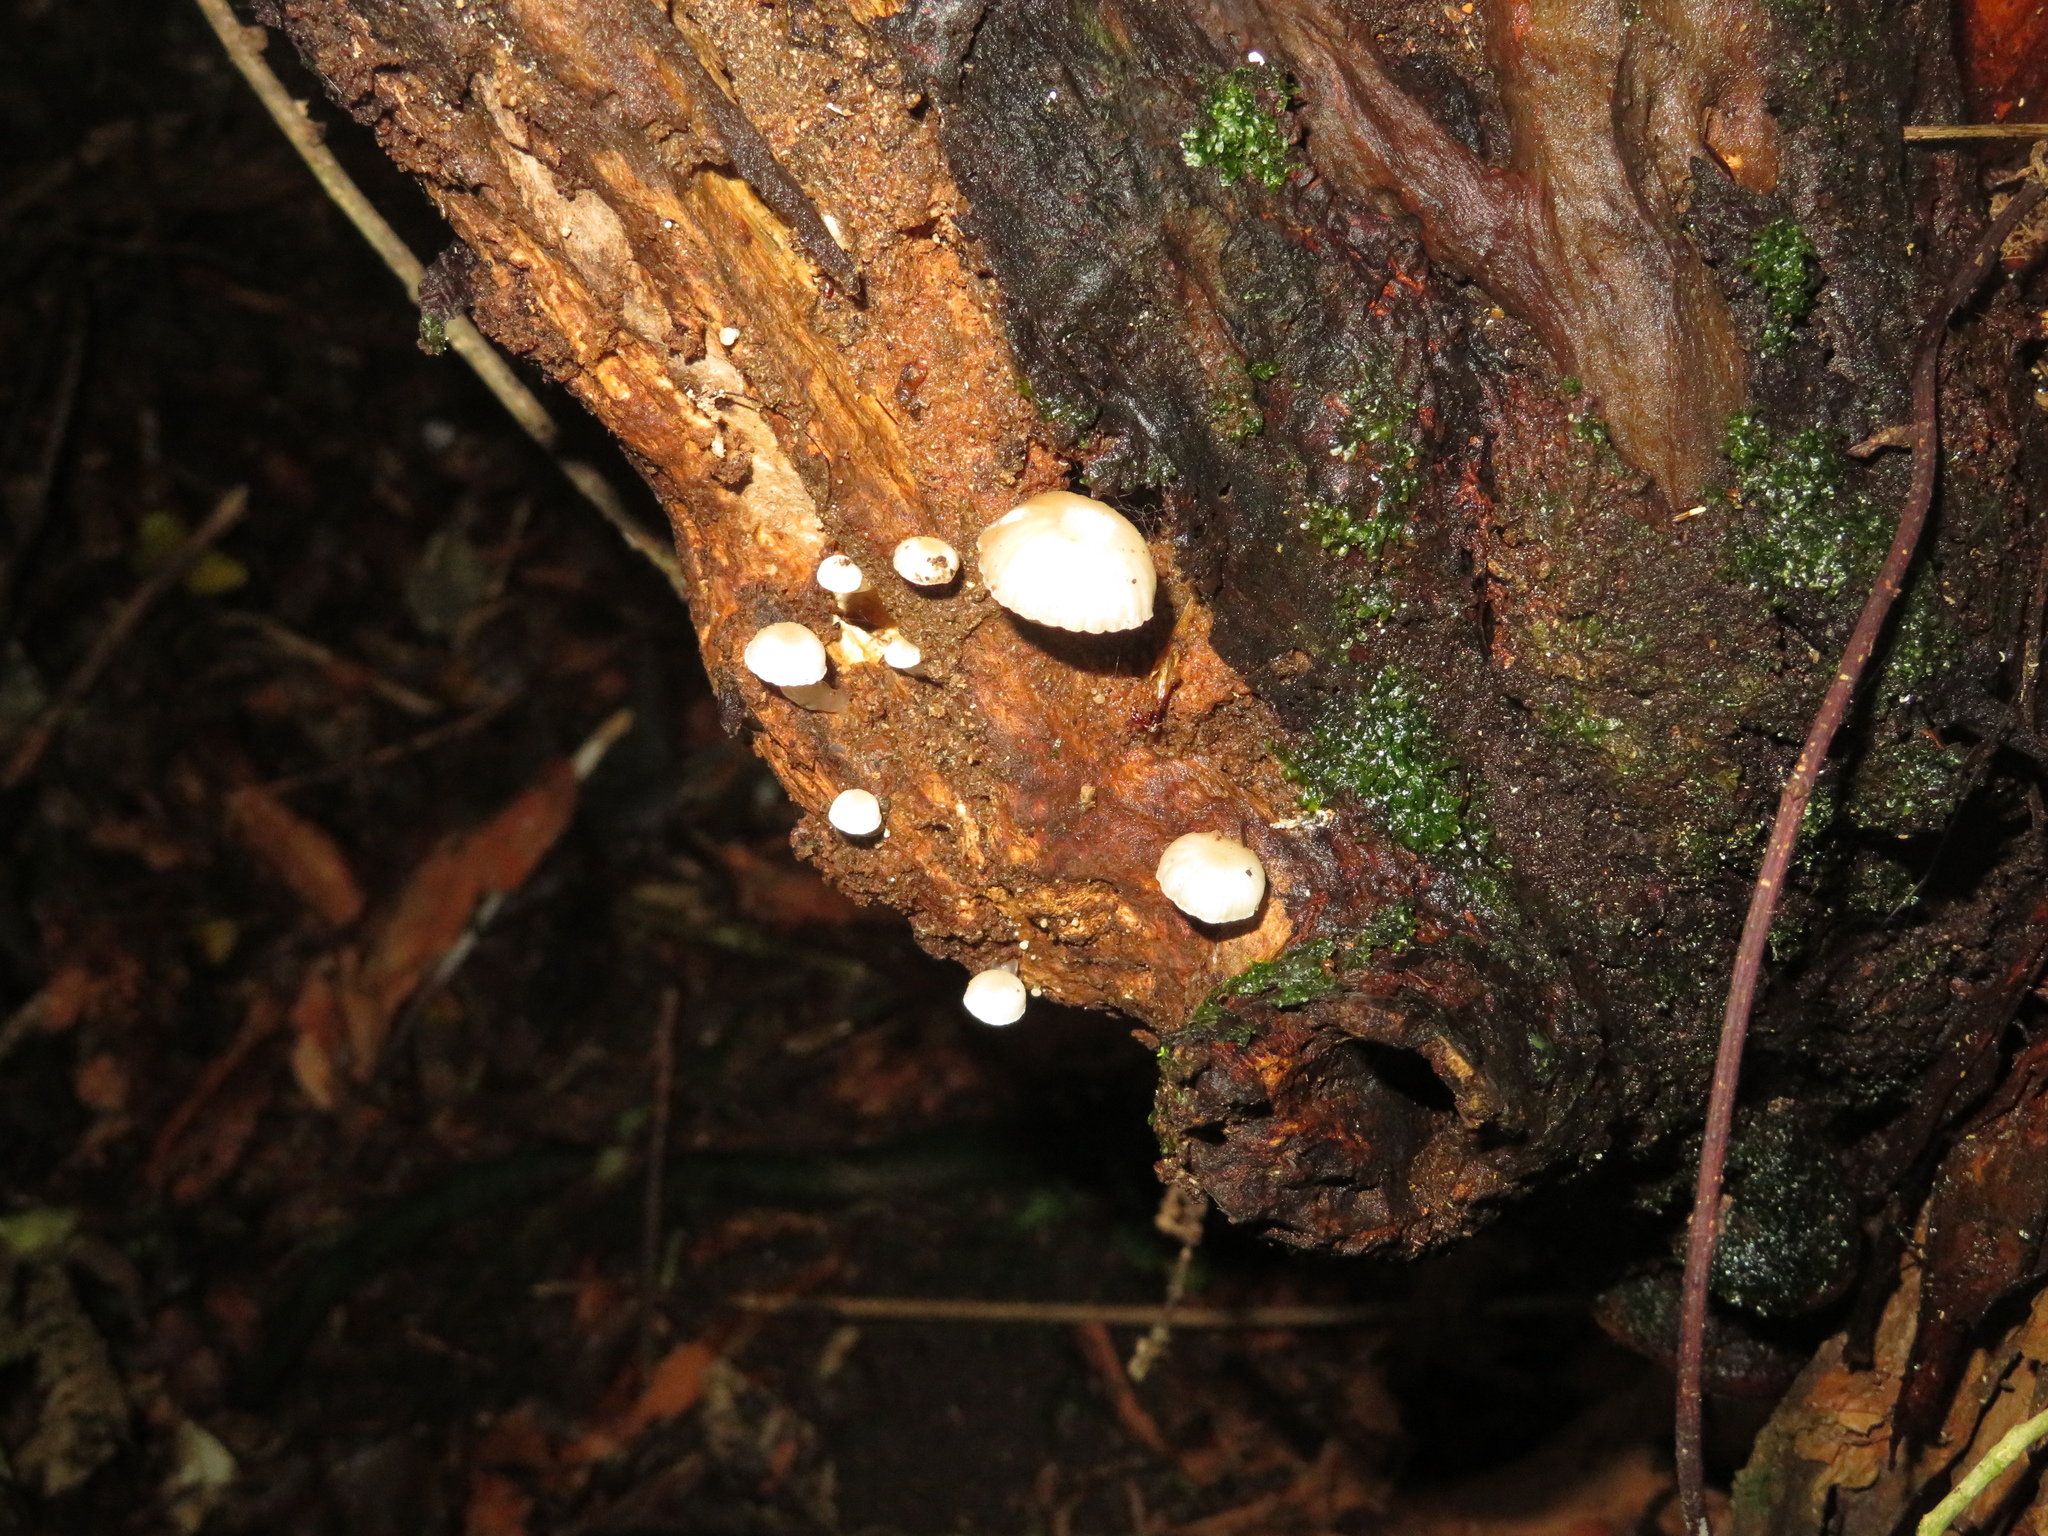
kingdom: Fungi
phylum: Basidiomycota
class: Agaricomycetes
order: Agaricales
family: Mycenaceae
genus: Roridomyces
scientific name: Roridomyces austrororidus
